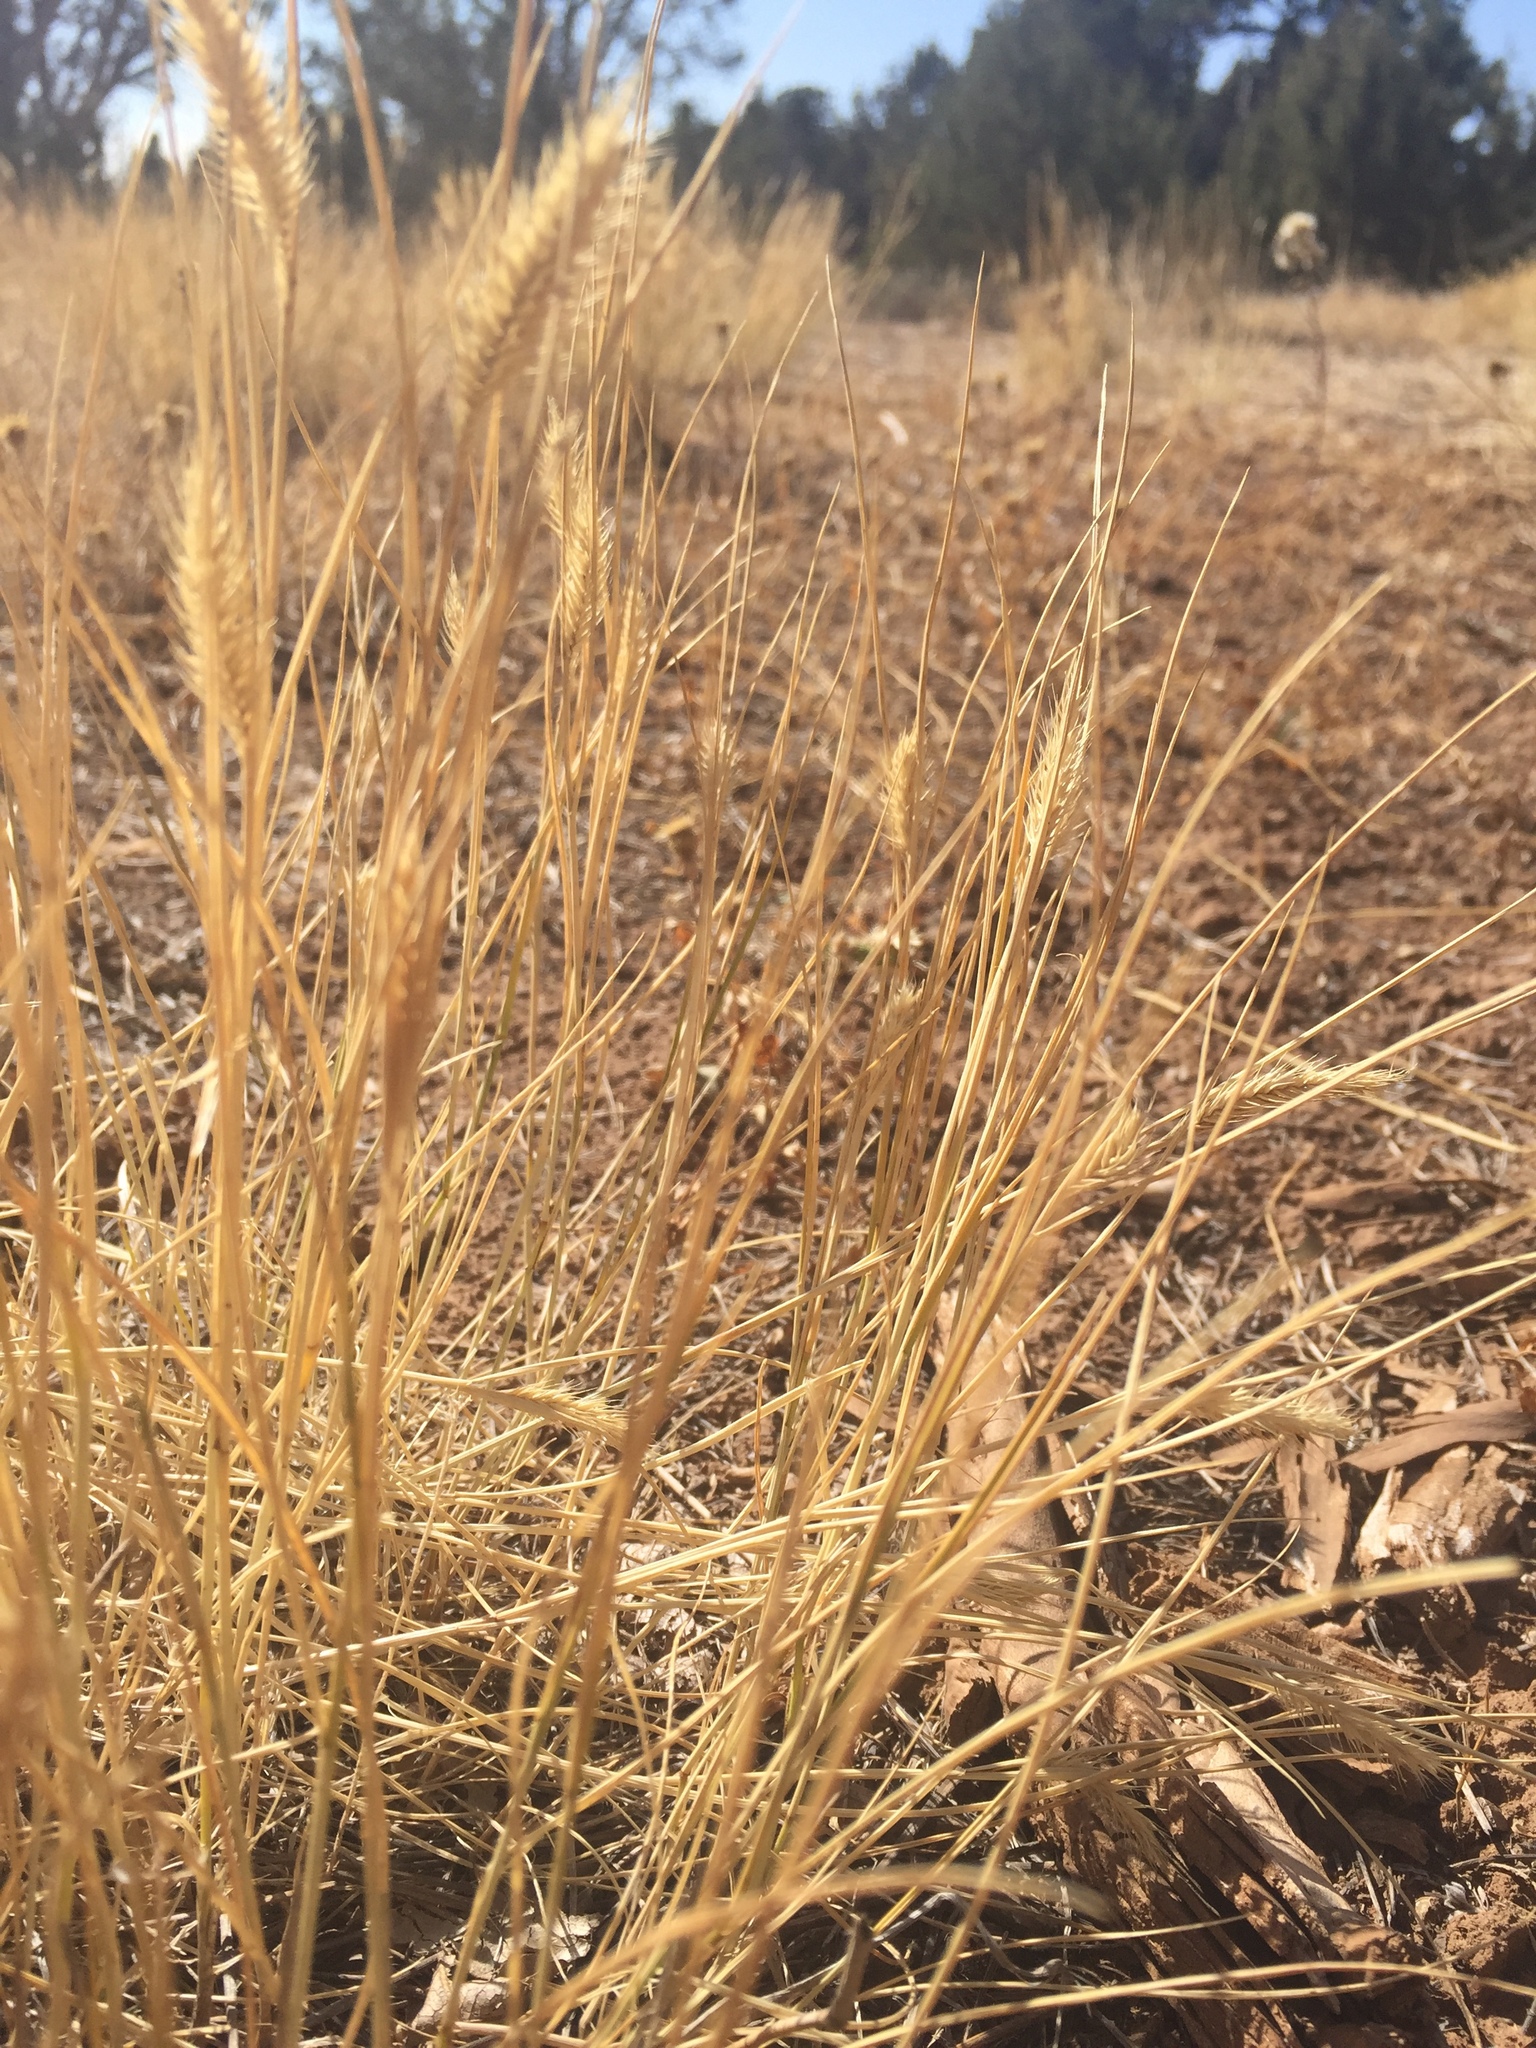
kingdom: Plantae
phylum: Tracheophyta
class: Liliopsida
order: Poales
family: Poaceae
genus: Agropyron
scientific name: Agropyron cristatum
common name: Crested wheatgrass
